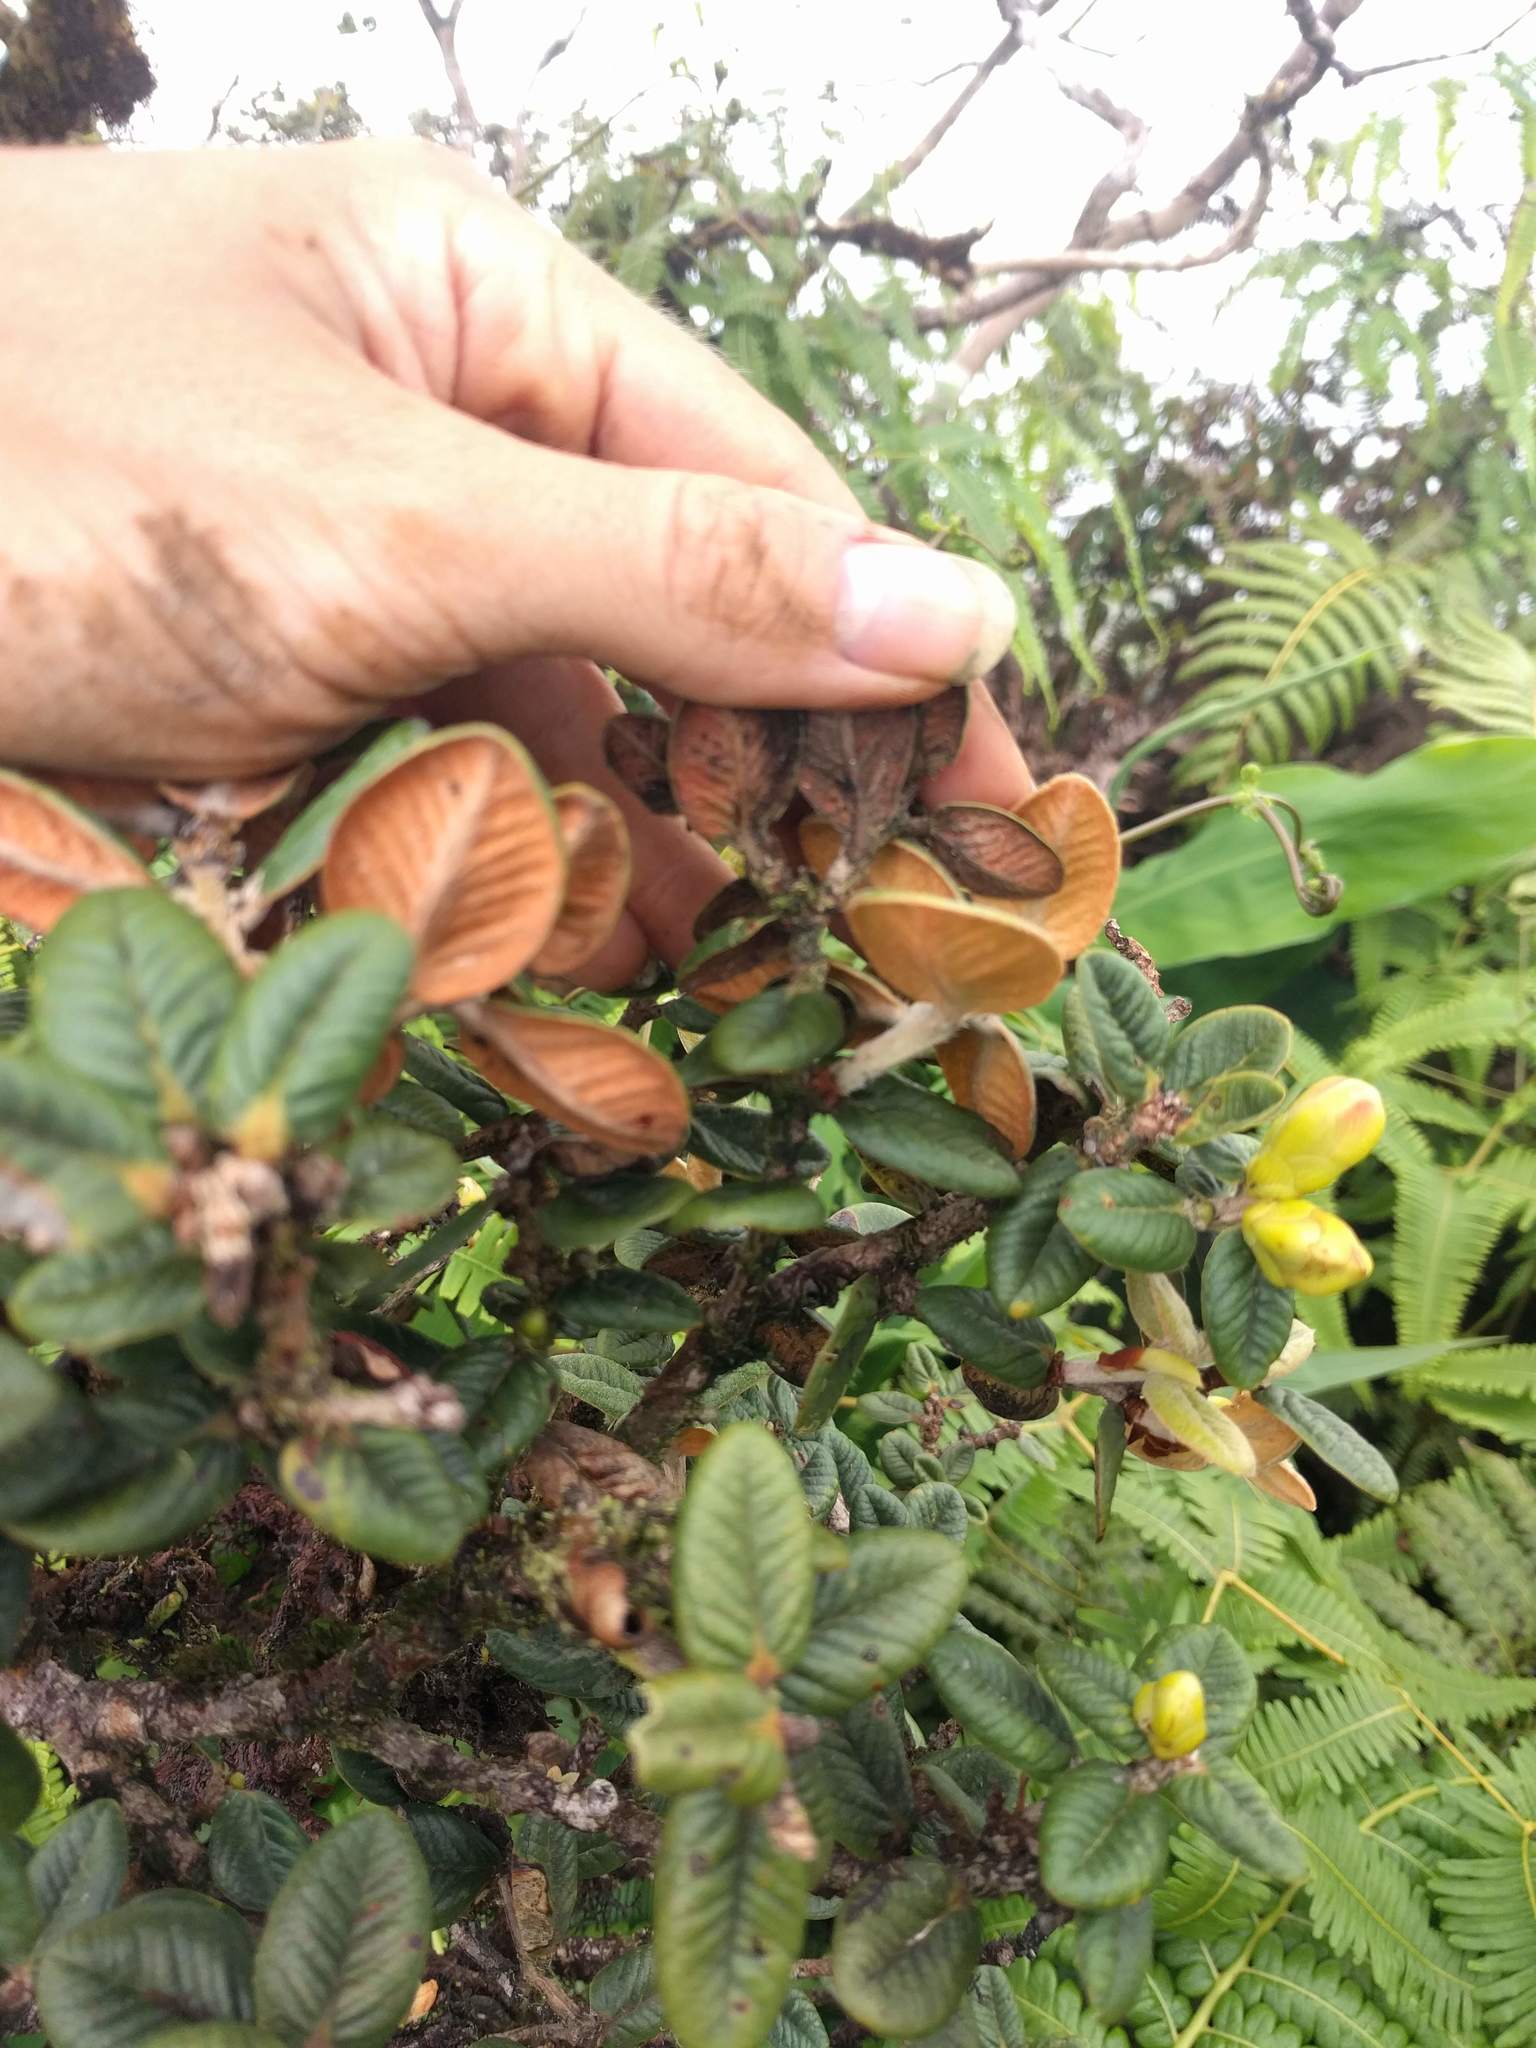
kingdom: Plantae
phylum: Tracheophyta
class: Magnoliopsida
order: Myrtales
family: Myrtaceae
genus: Metrosideros
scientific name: Metrosideros rugosa
